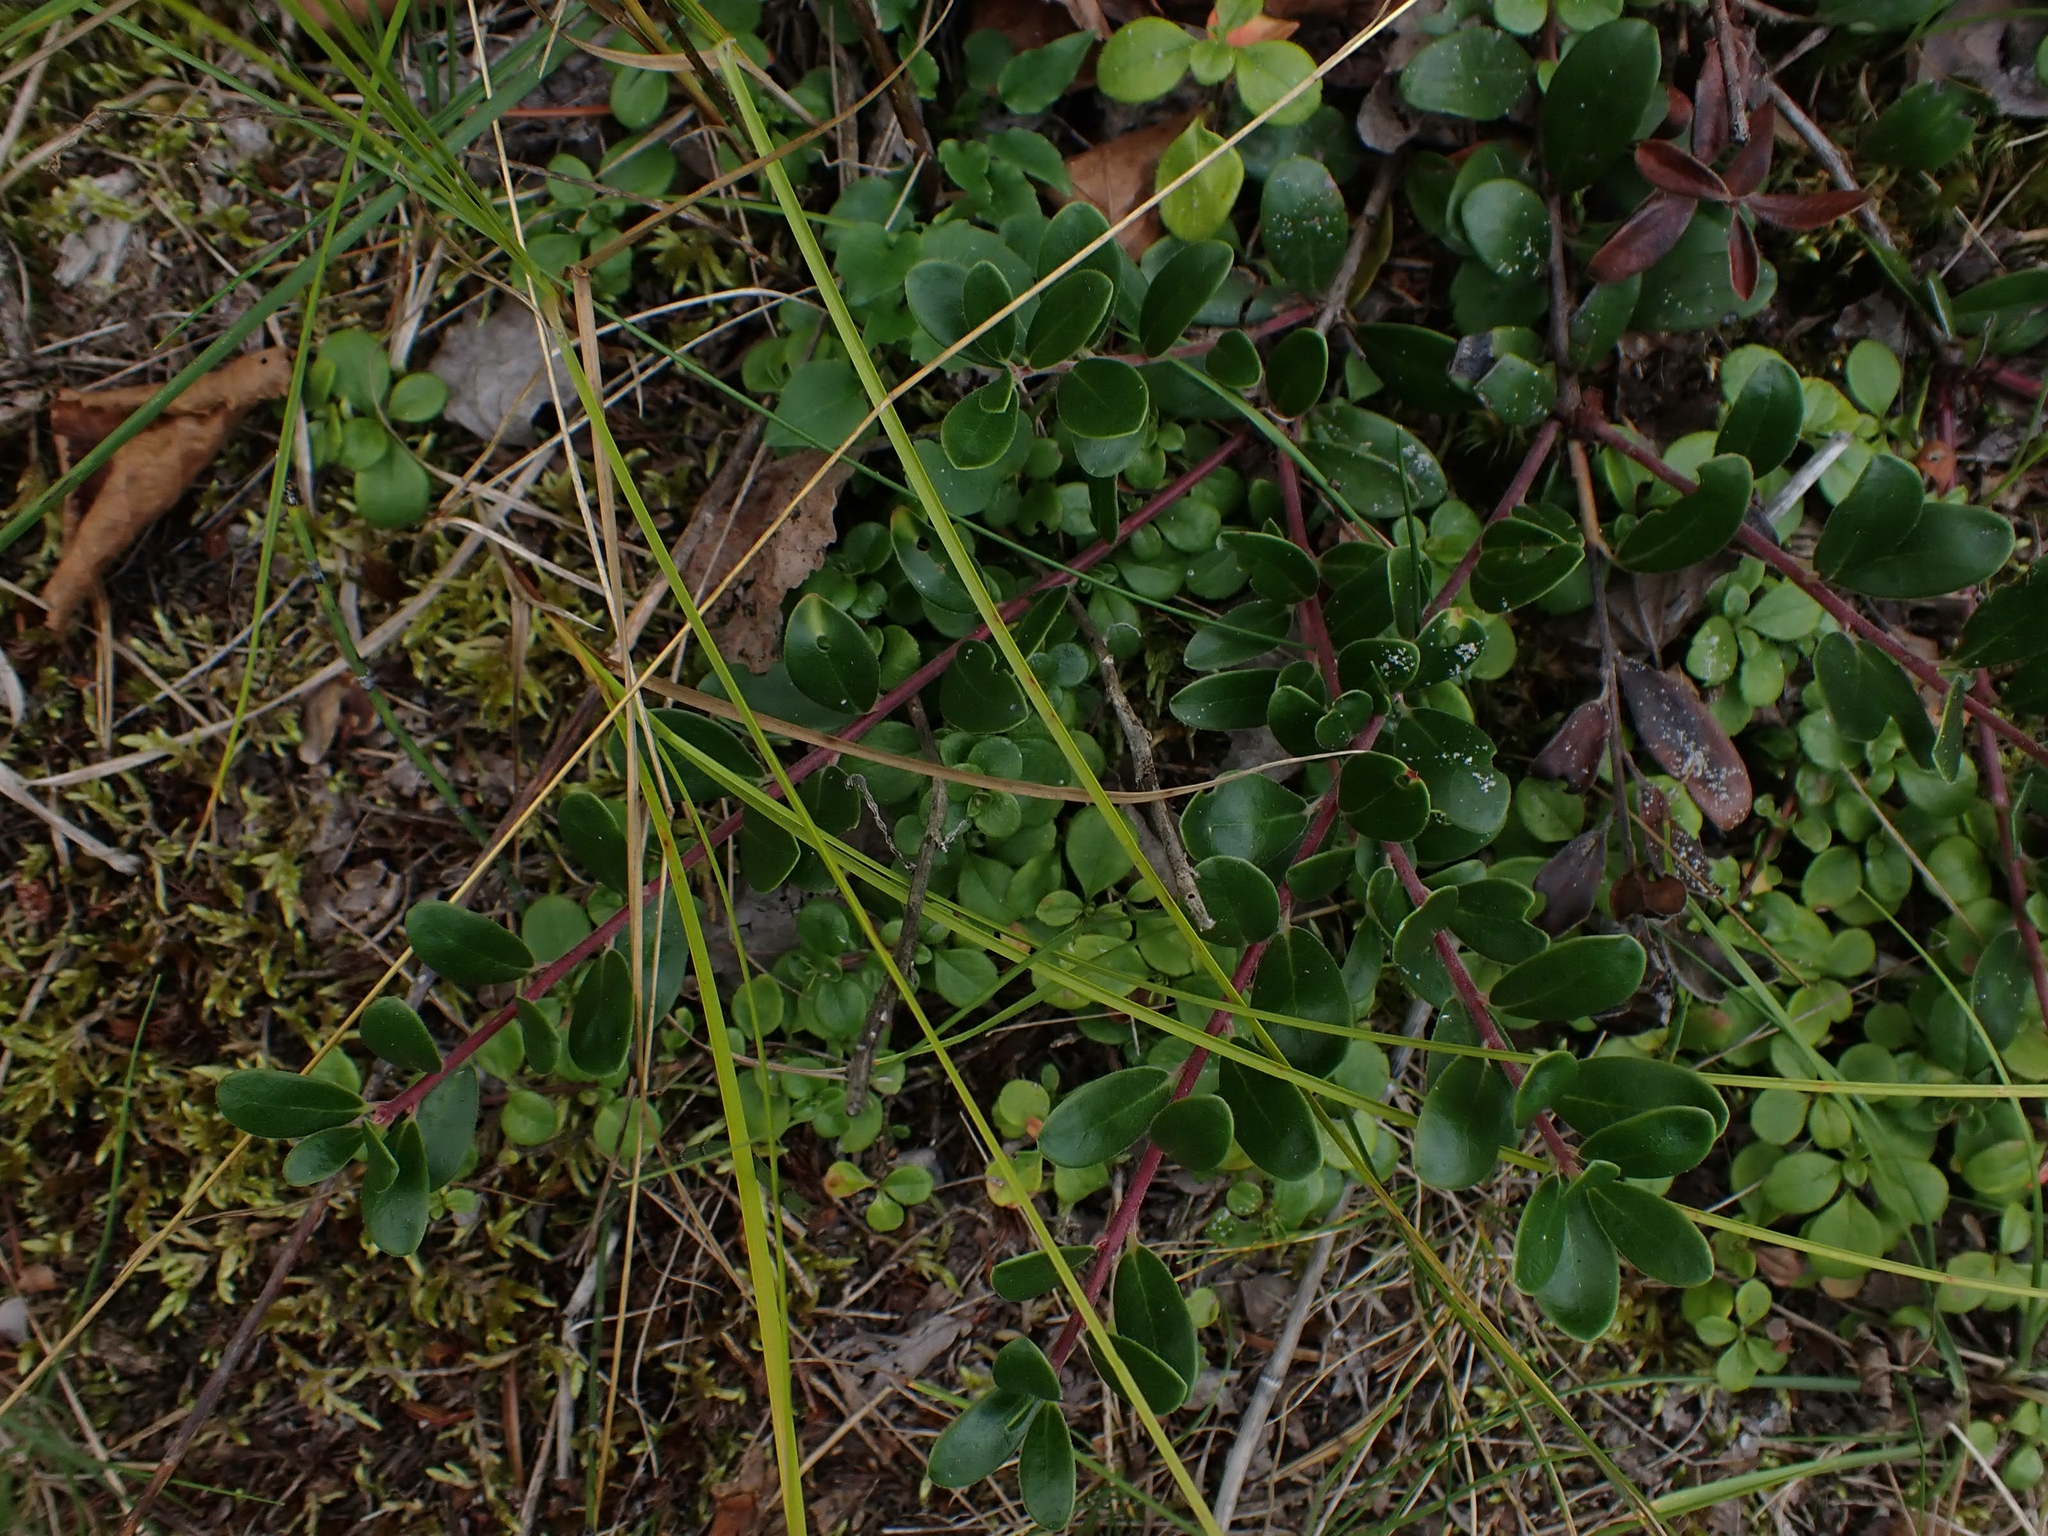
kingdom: Plantae
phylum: Tracheophyta
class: Magnoliopsida
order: Ericales
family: Ericaceae
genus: Arctostaphylos
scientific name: Arctostaphylos uva-ursi
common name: Bearberry
